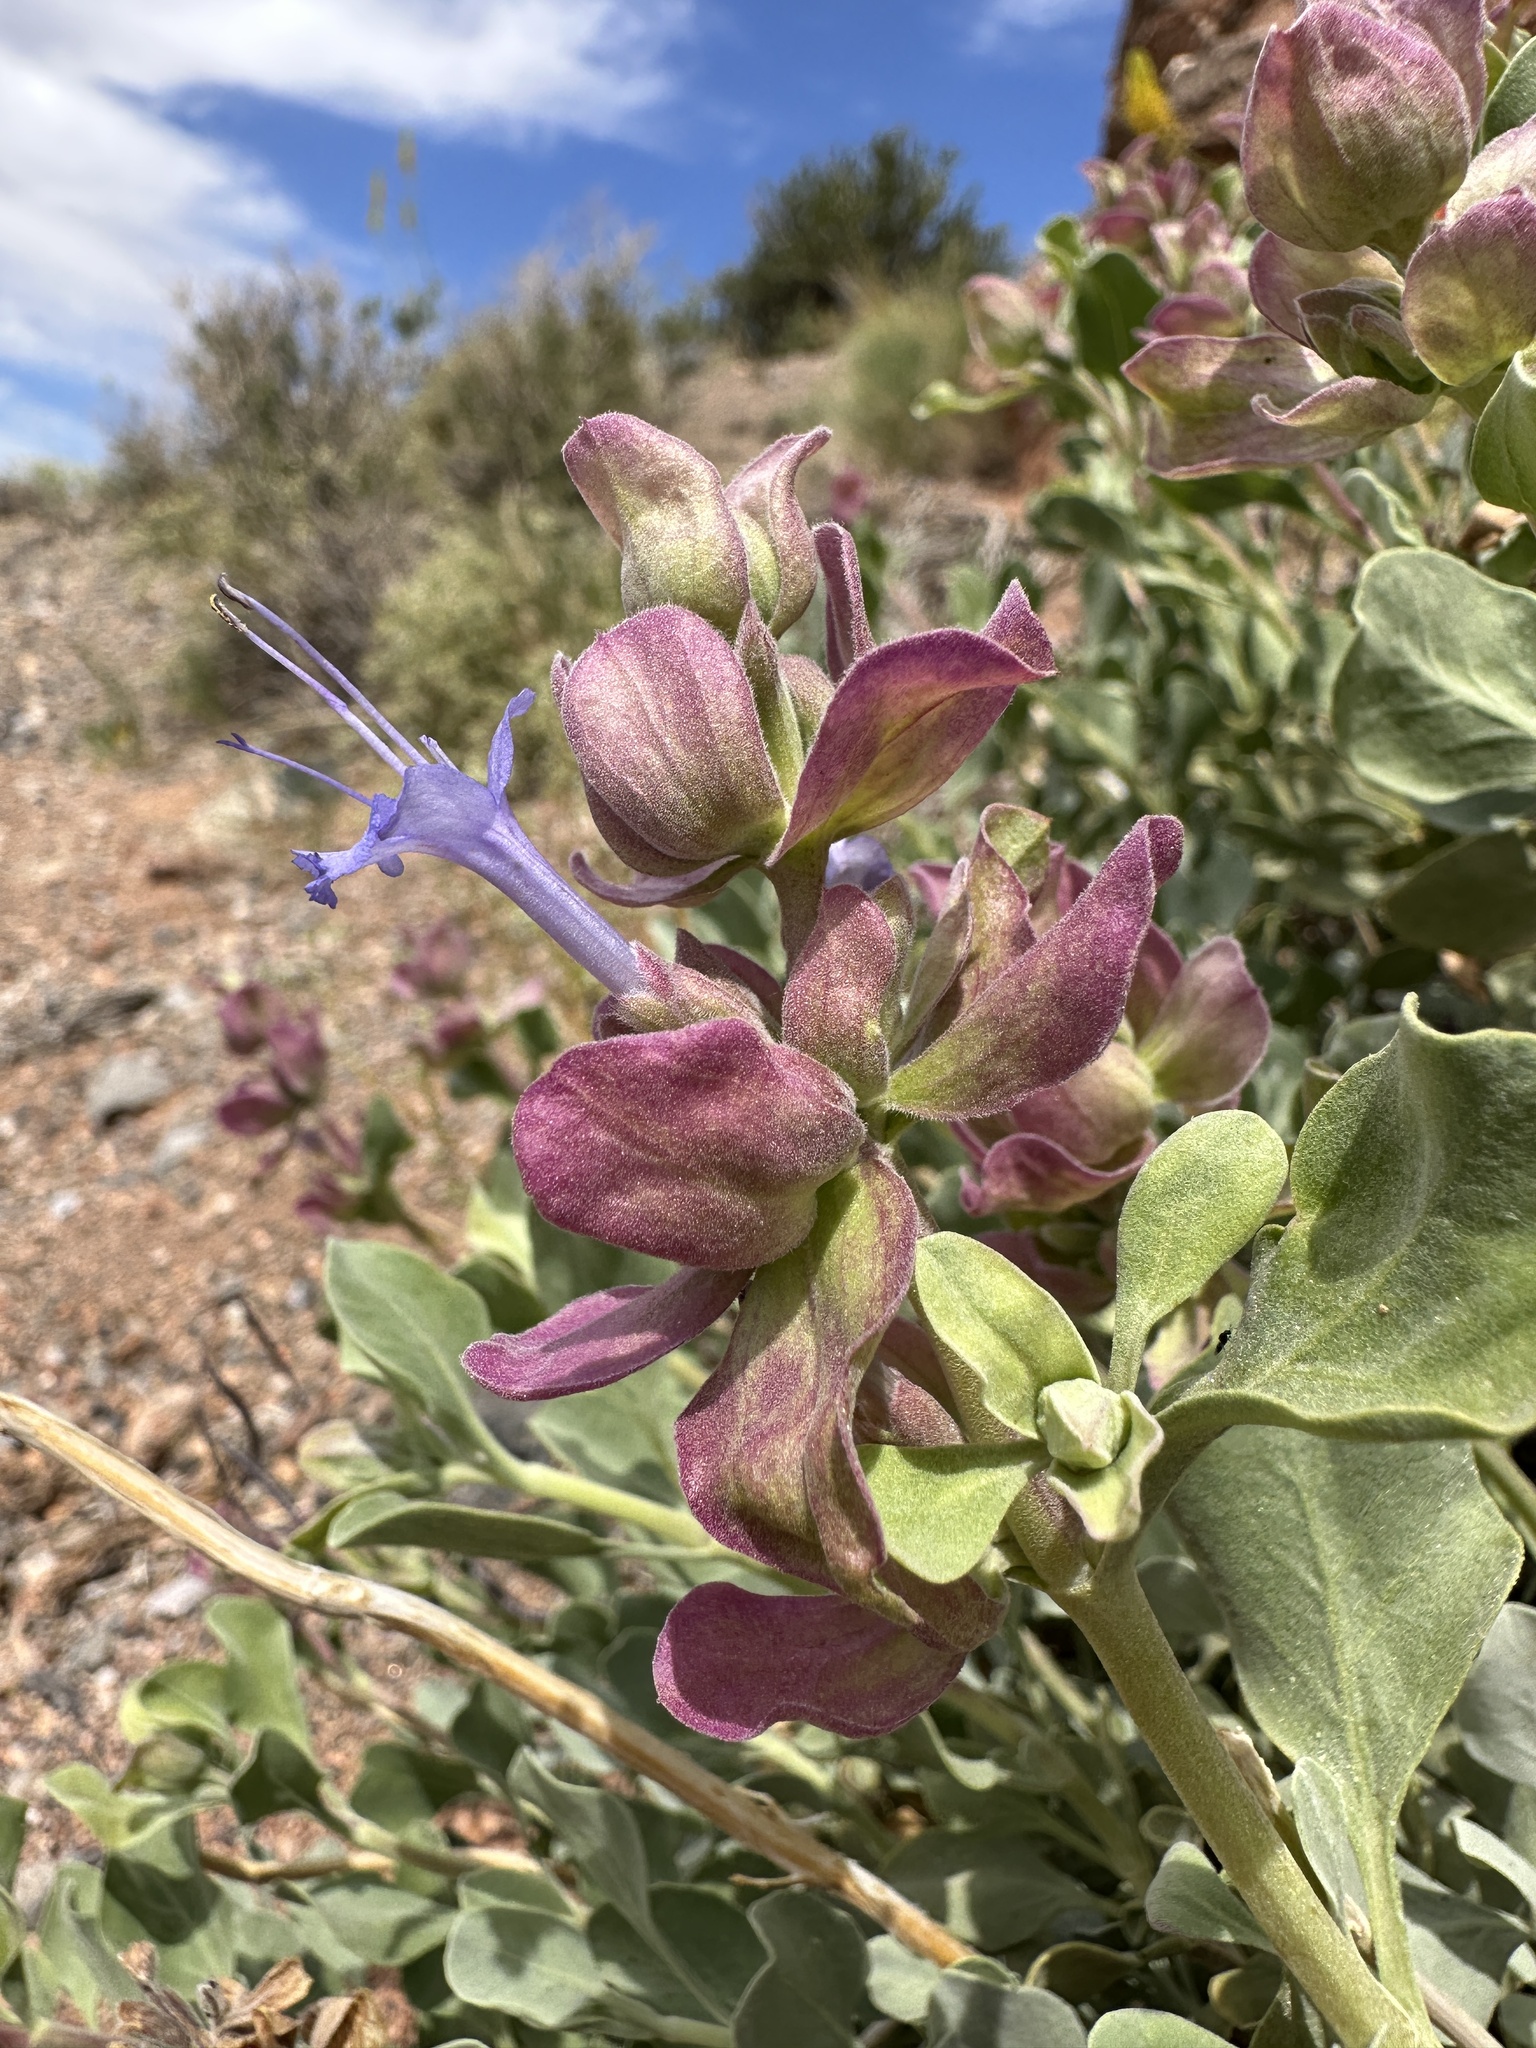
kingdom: Plantae
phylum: Tracheophyta
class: Magnoliopsida
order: Lamiales
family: Lamiaceae
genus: Salvia
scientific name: Salvia pachyphylla
